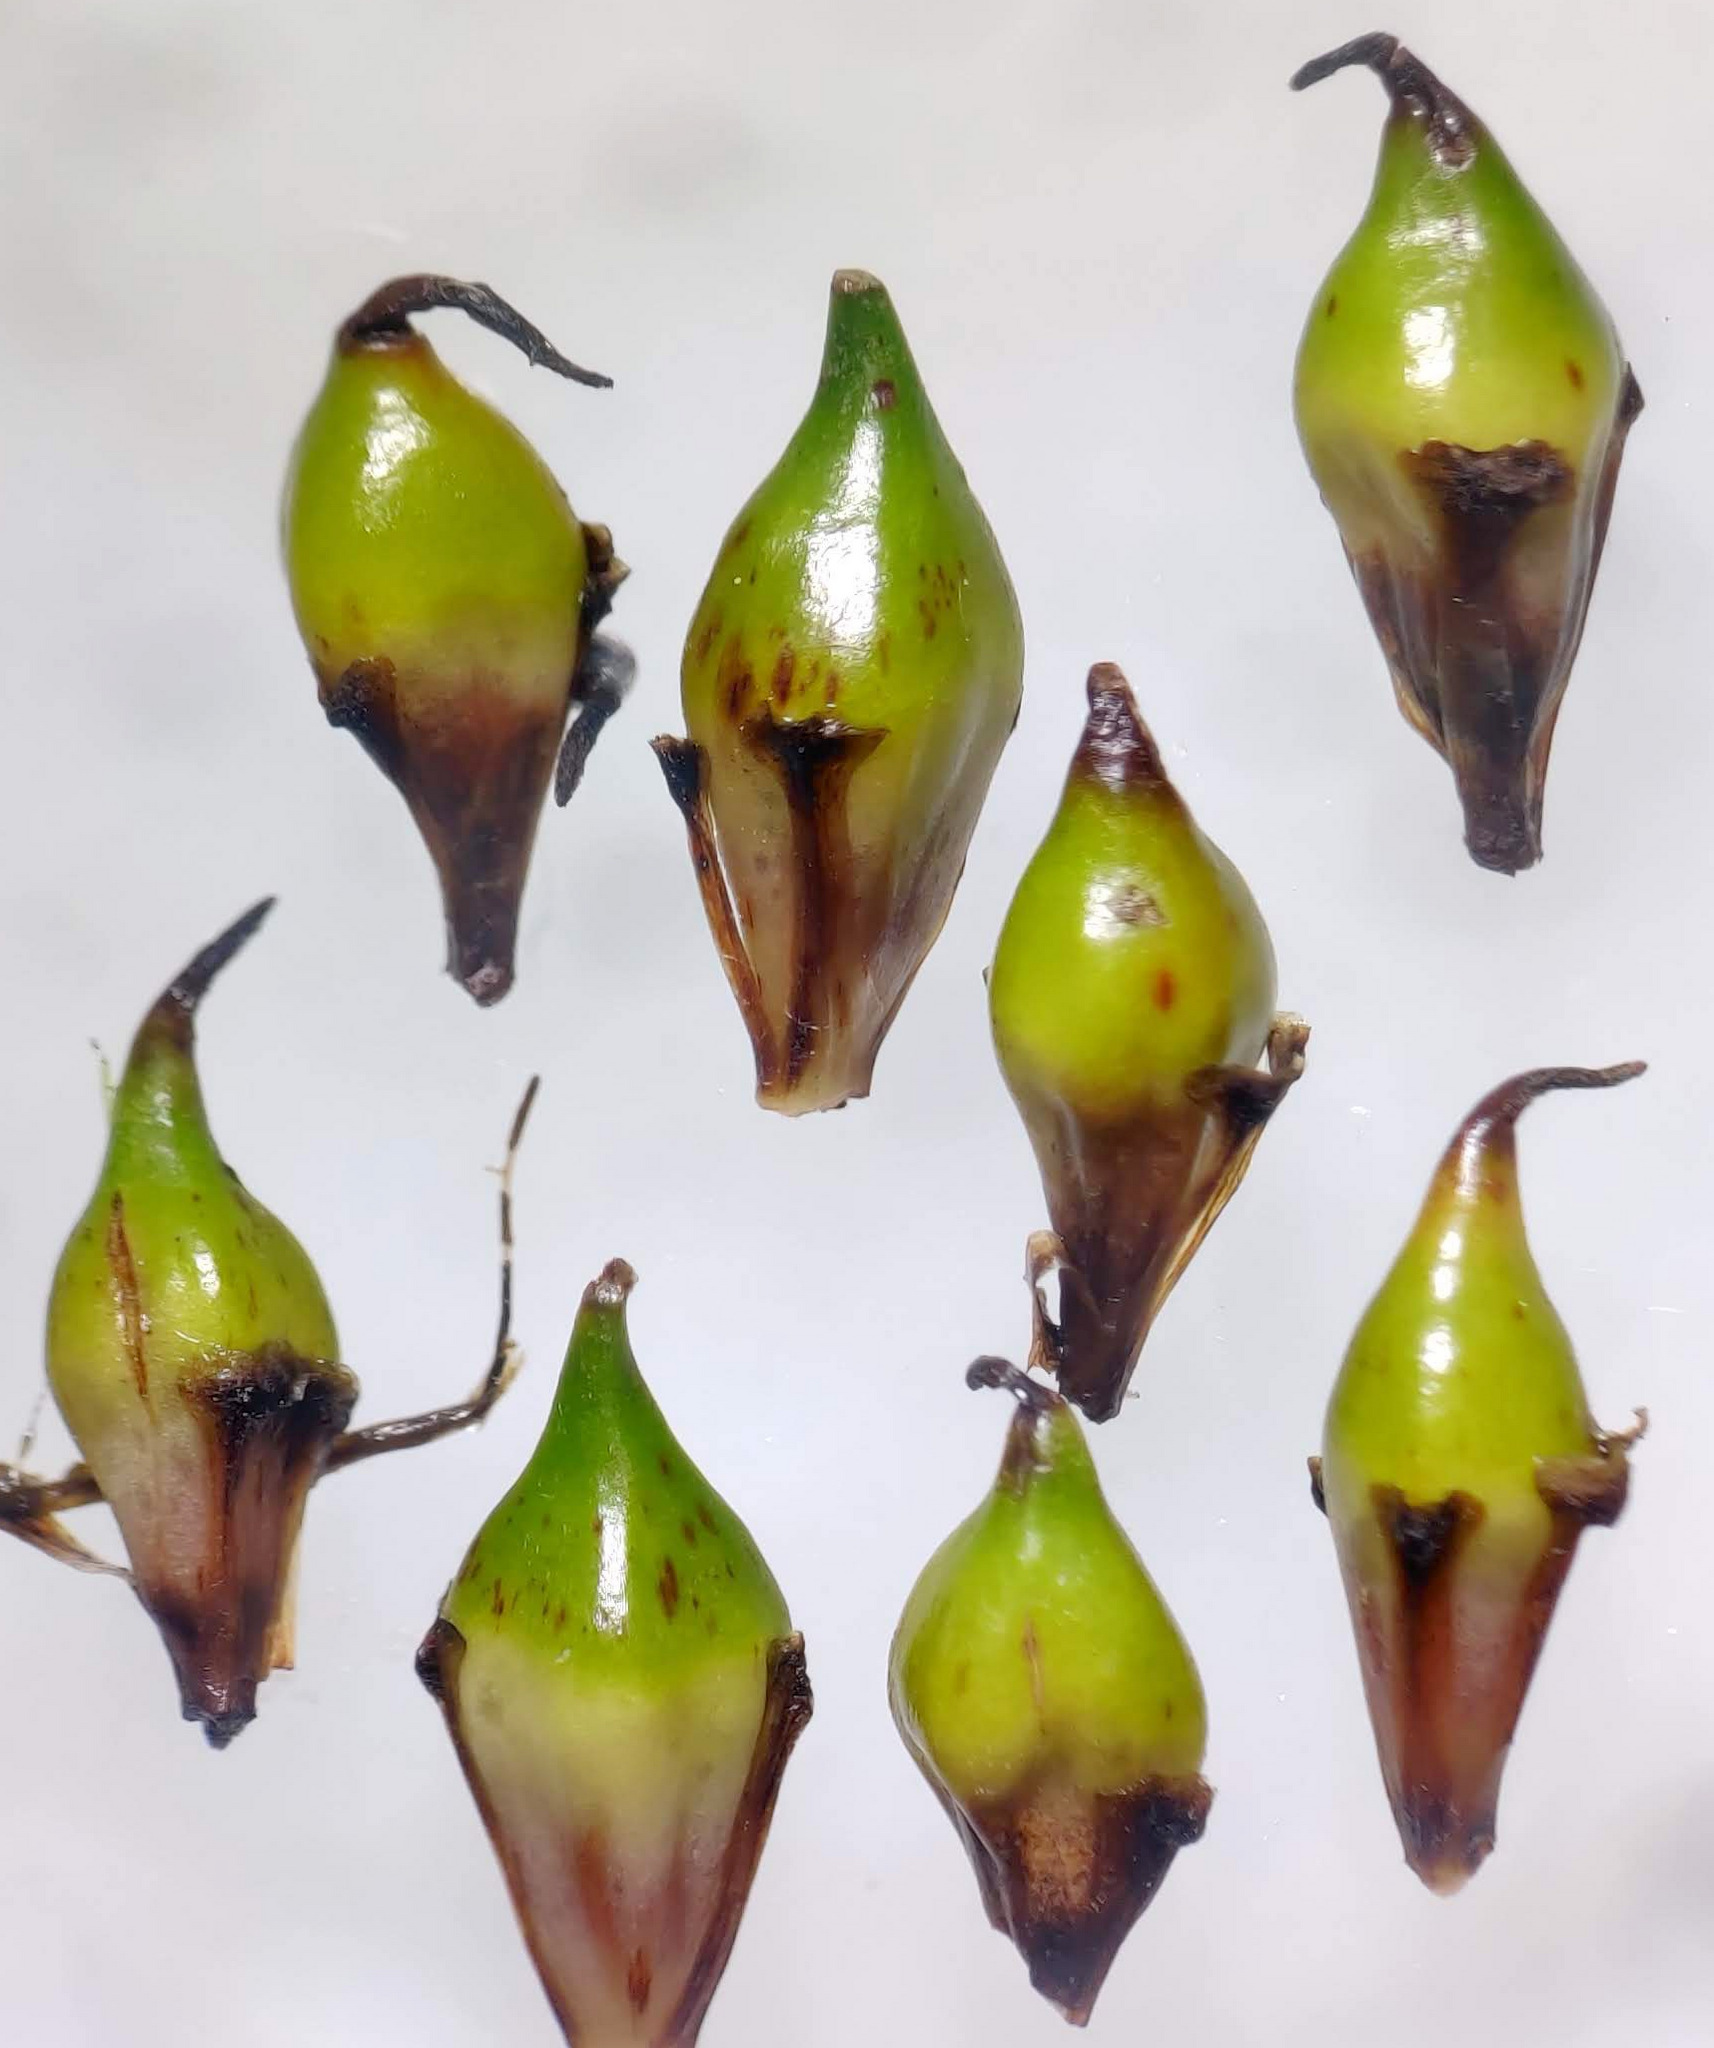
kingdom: Plantae
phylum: Tracheophyta
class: Liliopsida
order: Poales
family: Typhaceae
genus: Sparganium
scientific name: Sparganium erectum
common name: Branched bur-reed
